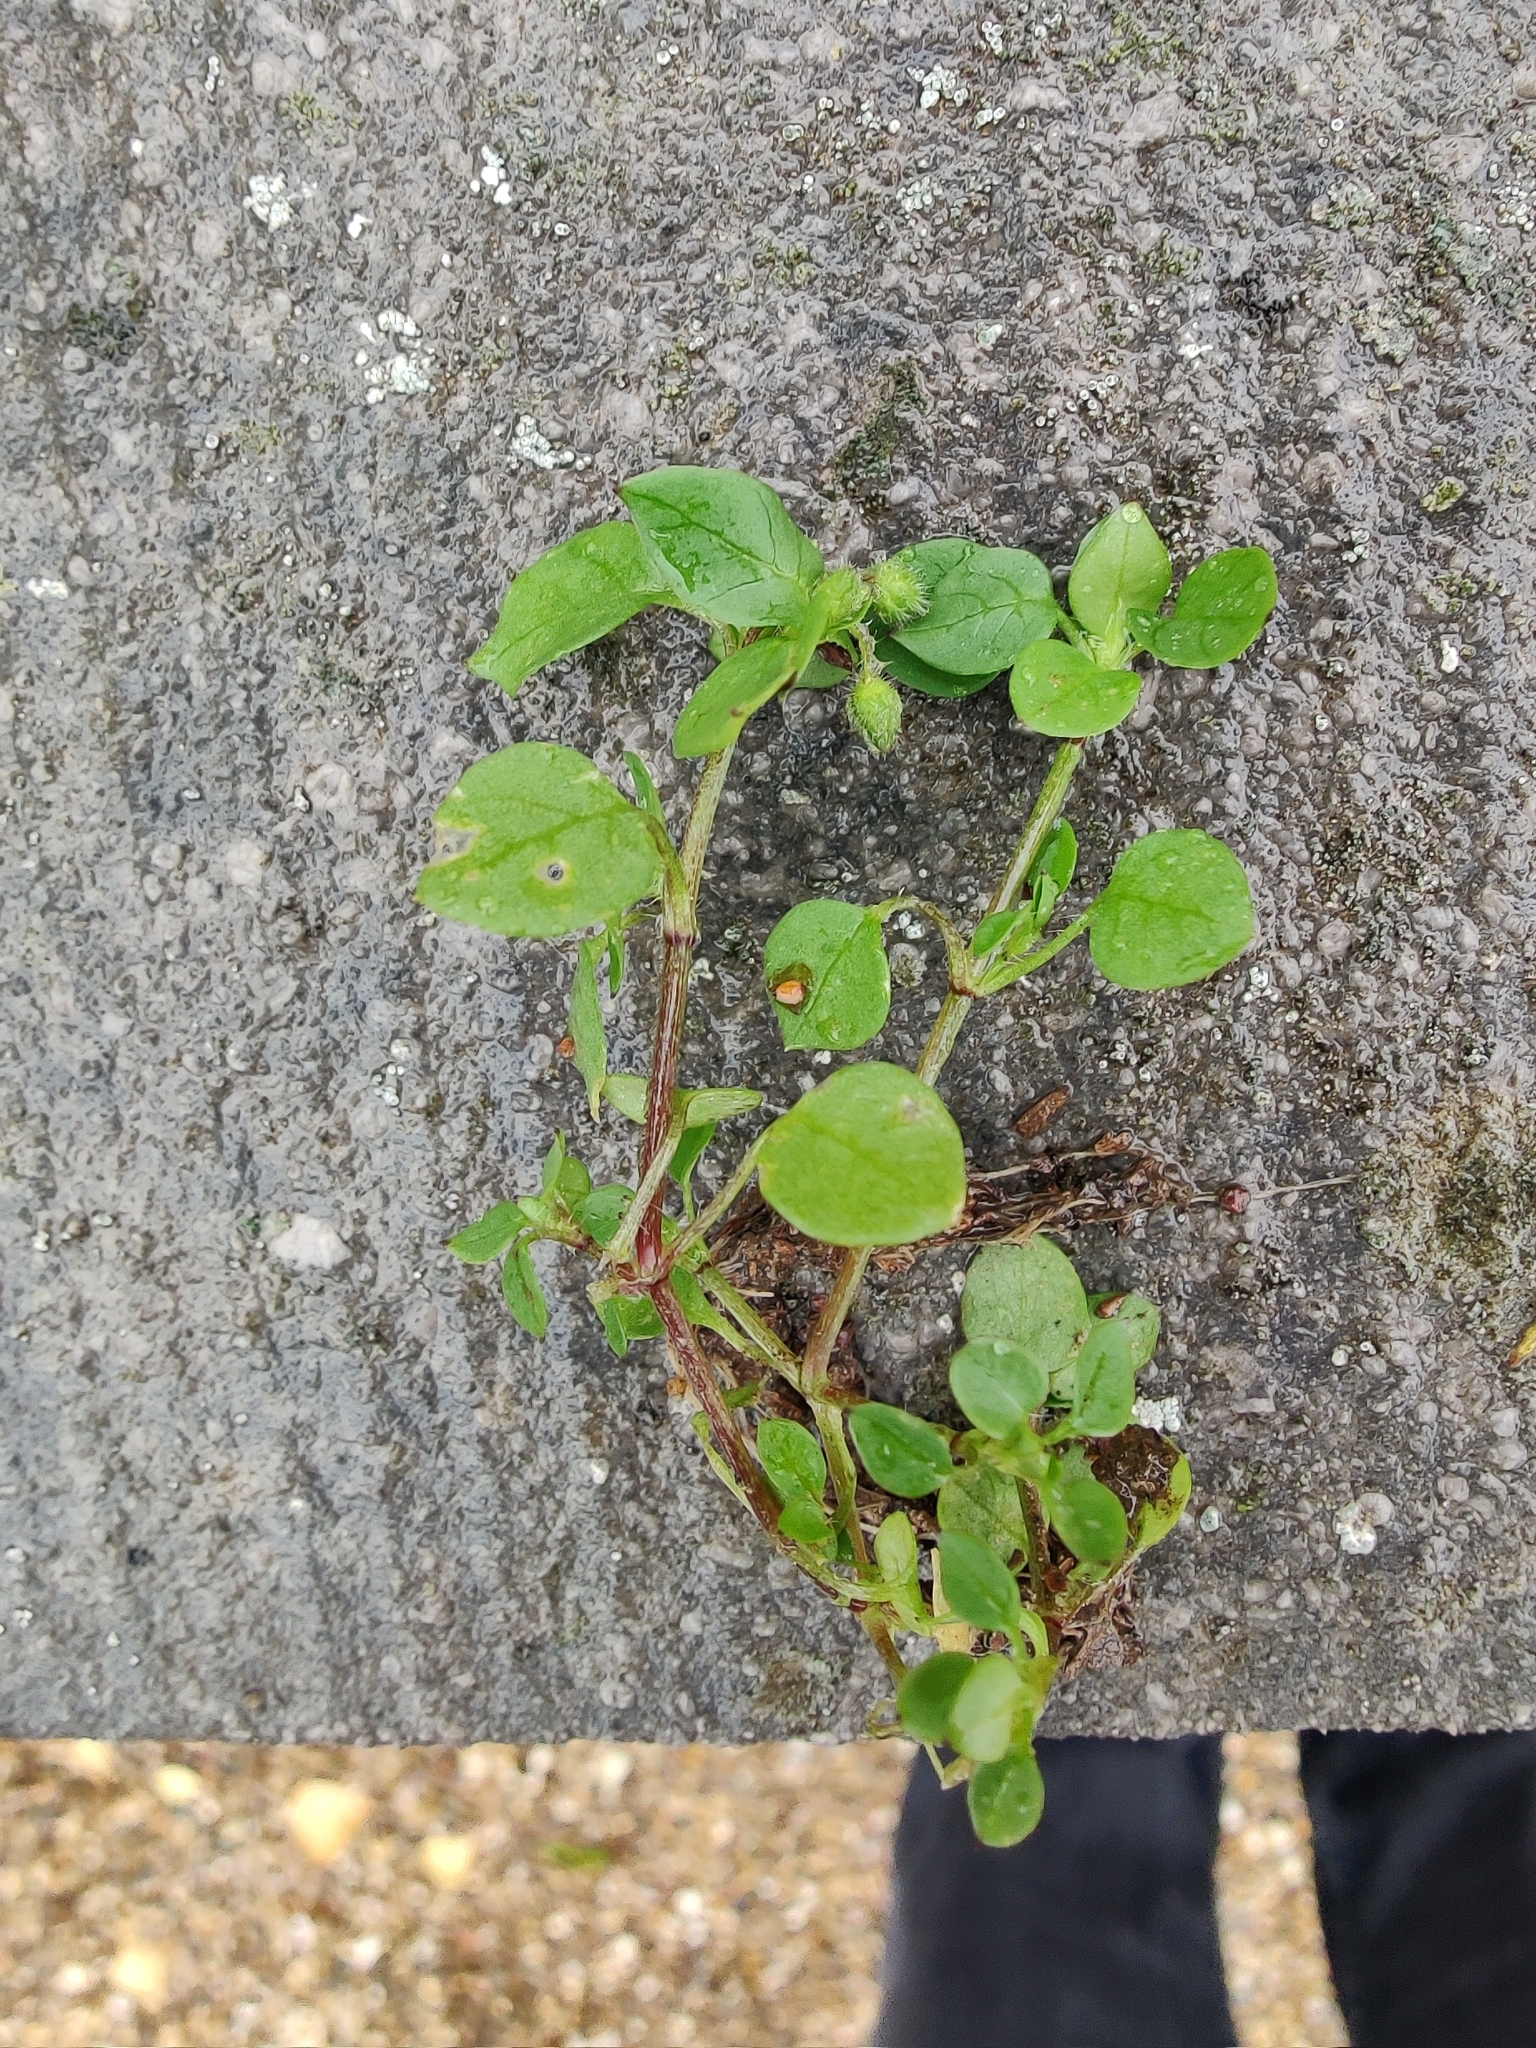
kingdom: Plantae
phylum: Tracheophyta
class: Magnoliopsida
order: Caryophyllales
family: Caryophyllaceae
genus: Stellaria
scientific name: Stellaria media
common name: Common chickweed
